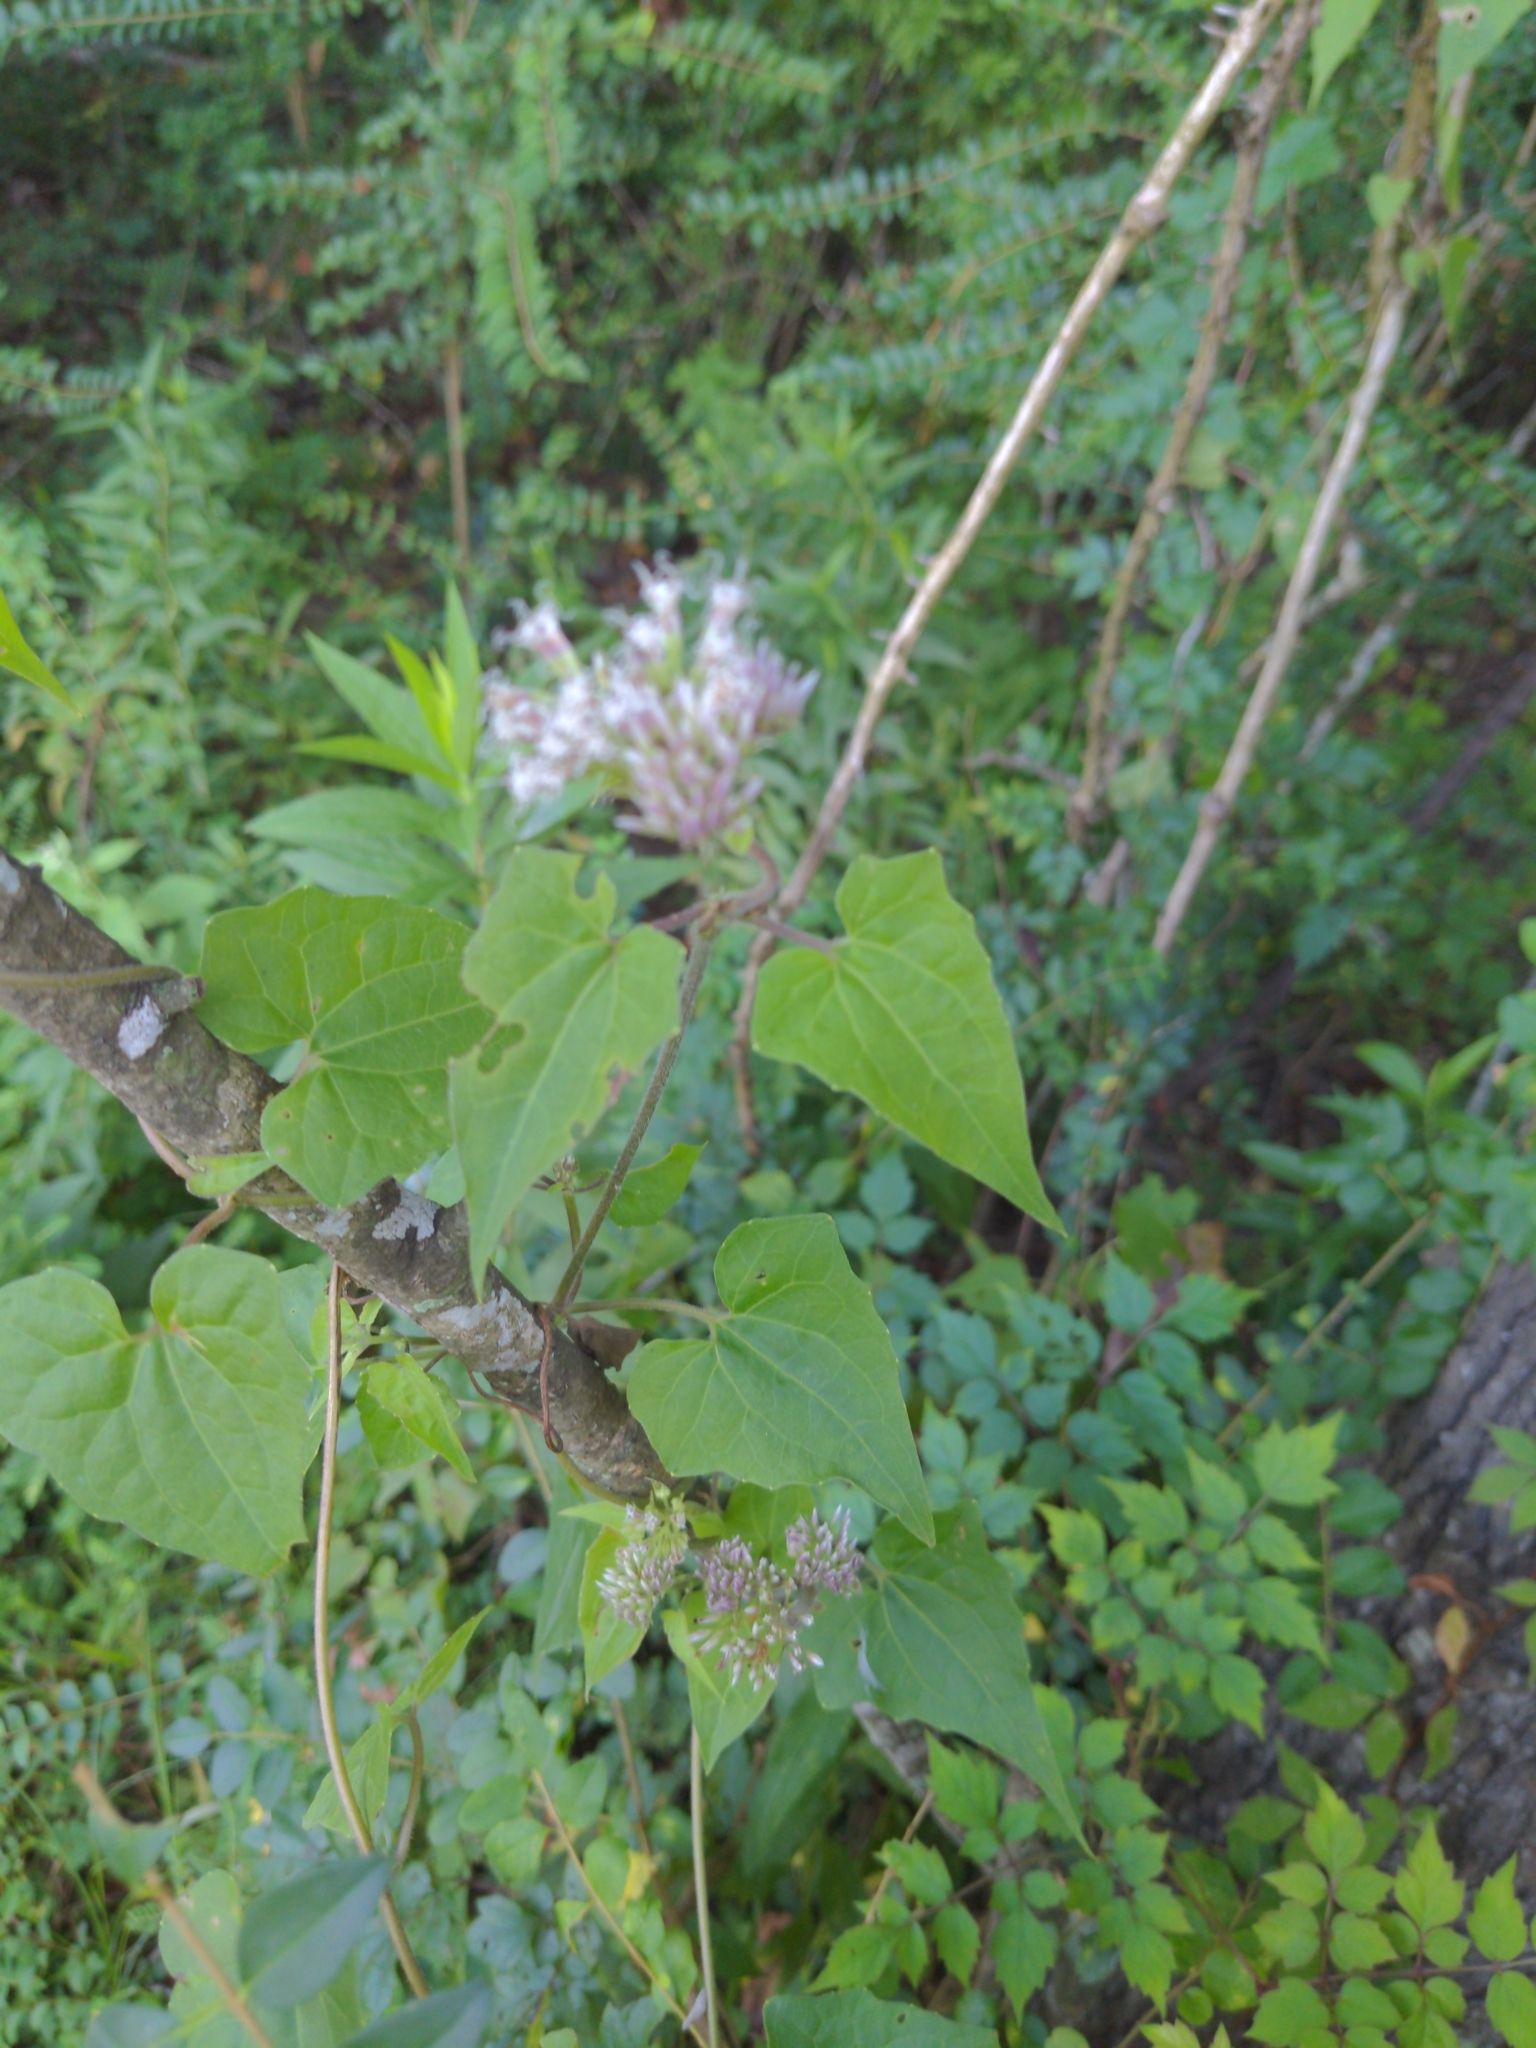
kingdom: Plantae
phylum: Tracheophyta
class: Magnoliopsida
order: Asterales
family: Asteraceae
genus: Mikania
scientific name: Mikania scandens
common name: Climbing hempvine
